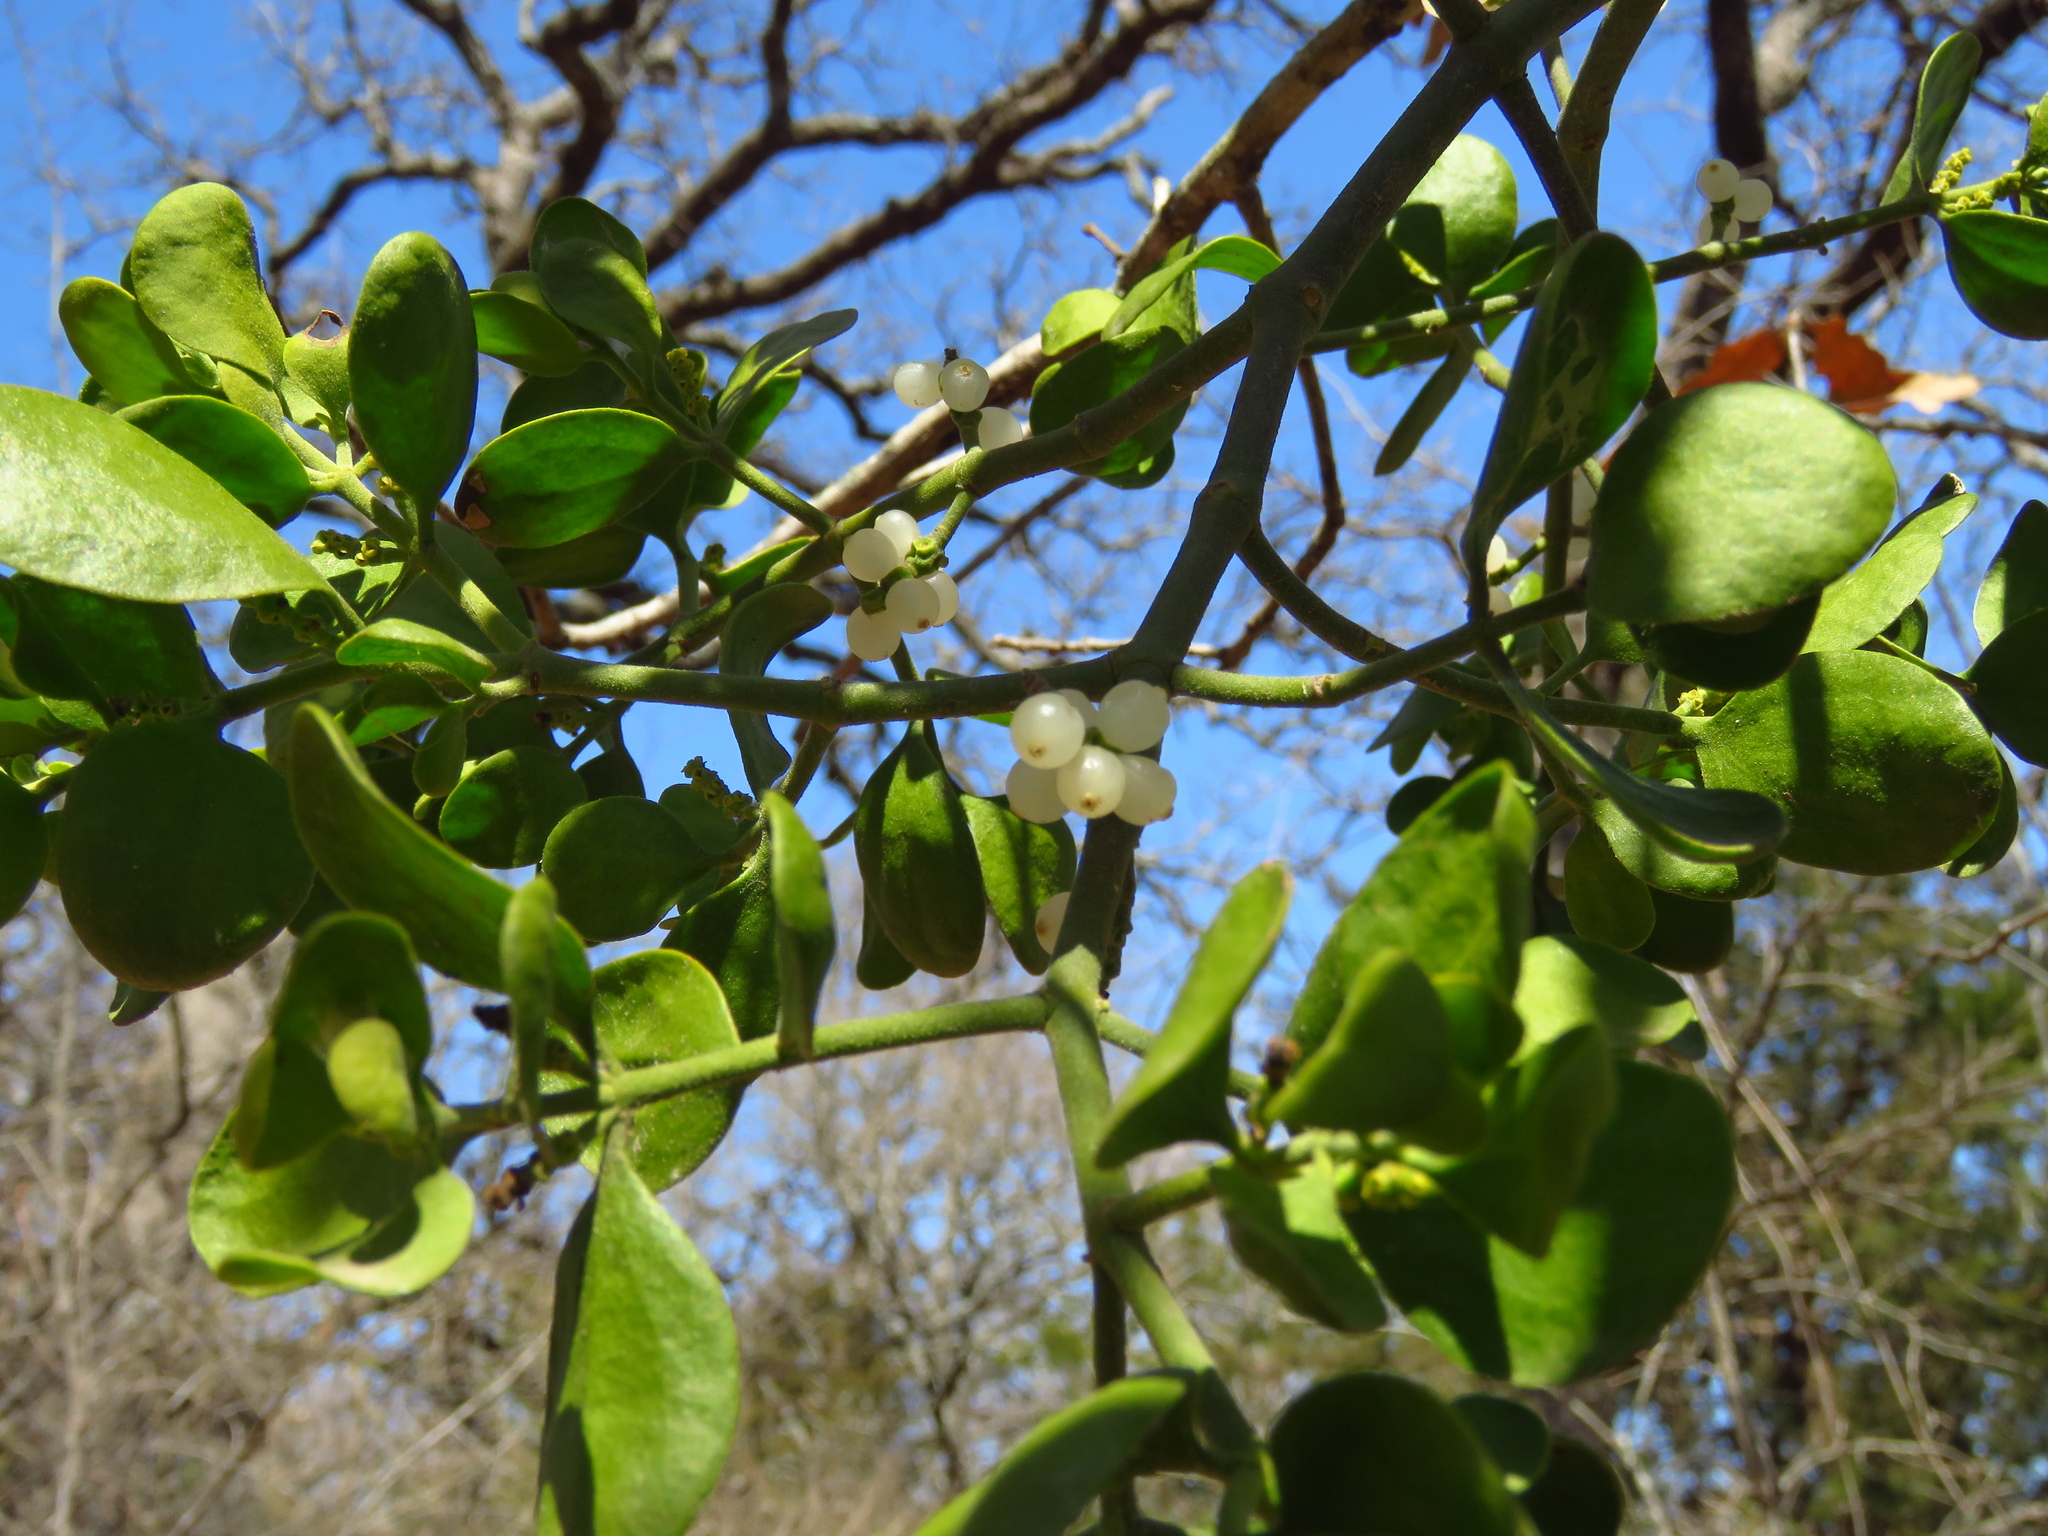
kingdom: Plantae
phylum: Tracheophyta
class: Magnoliopsida
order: Santalales
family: Viscaceae
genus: Phoradendron
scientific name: Phoradendron leucarpum
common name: Pacific mistletoe
